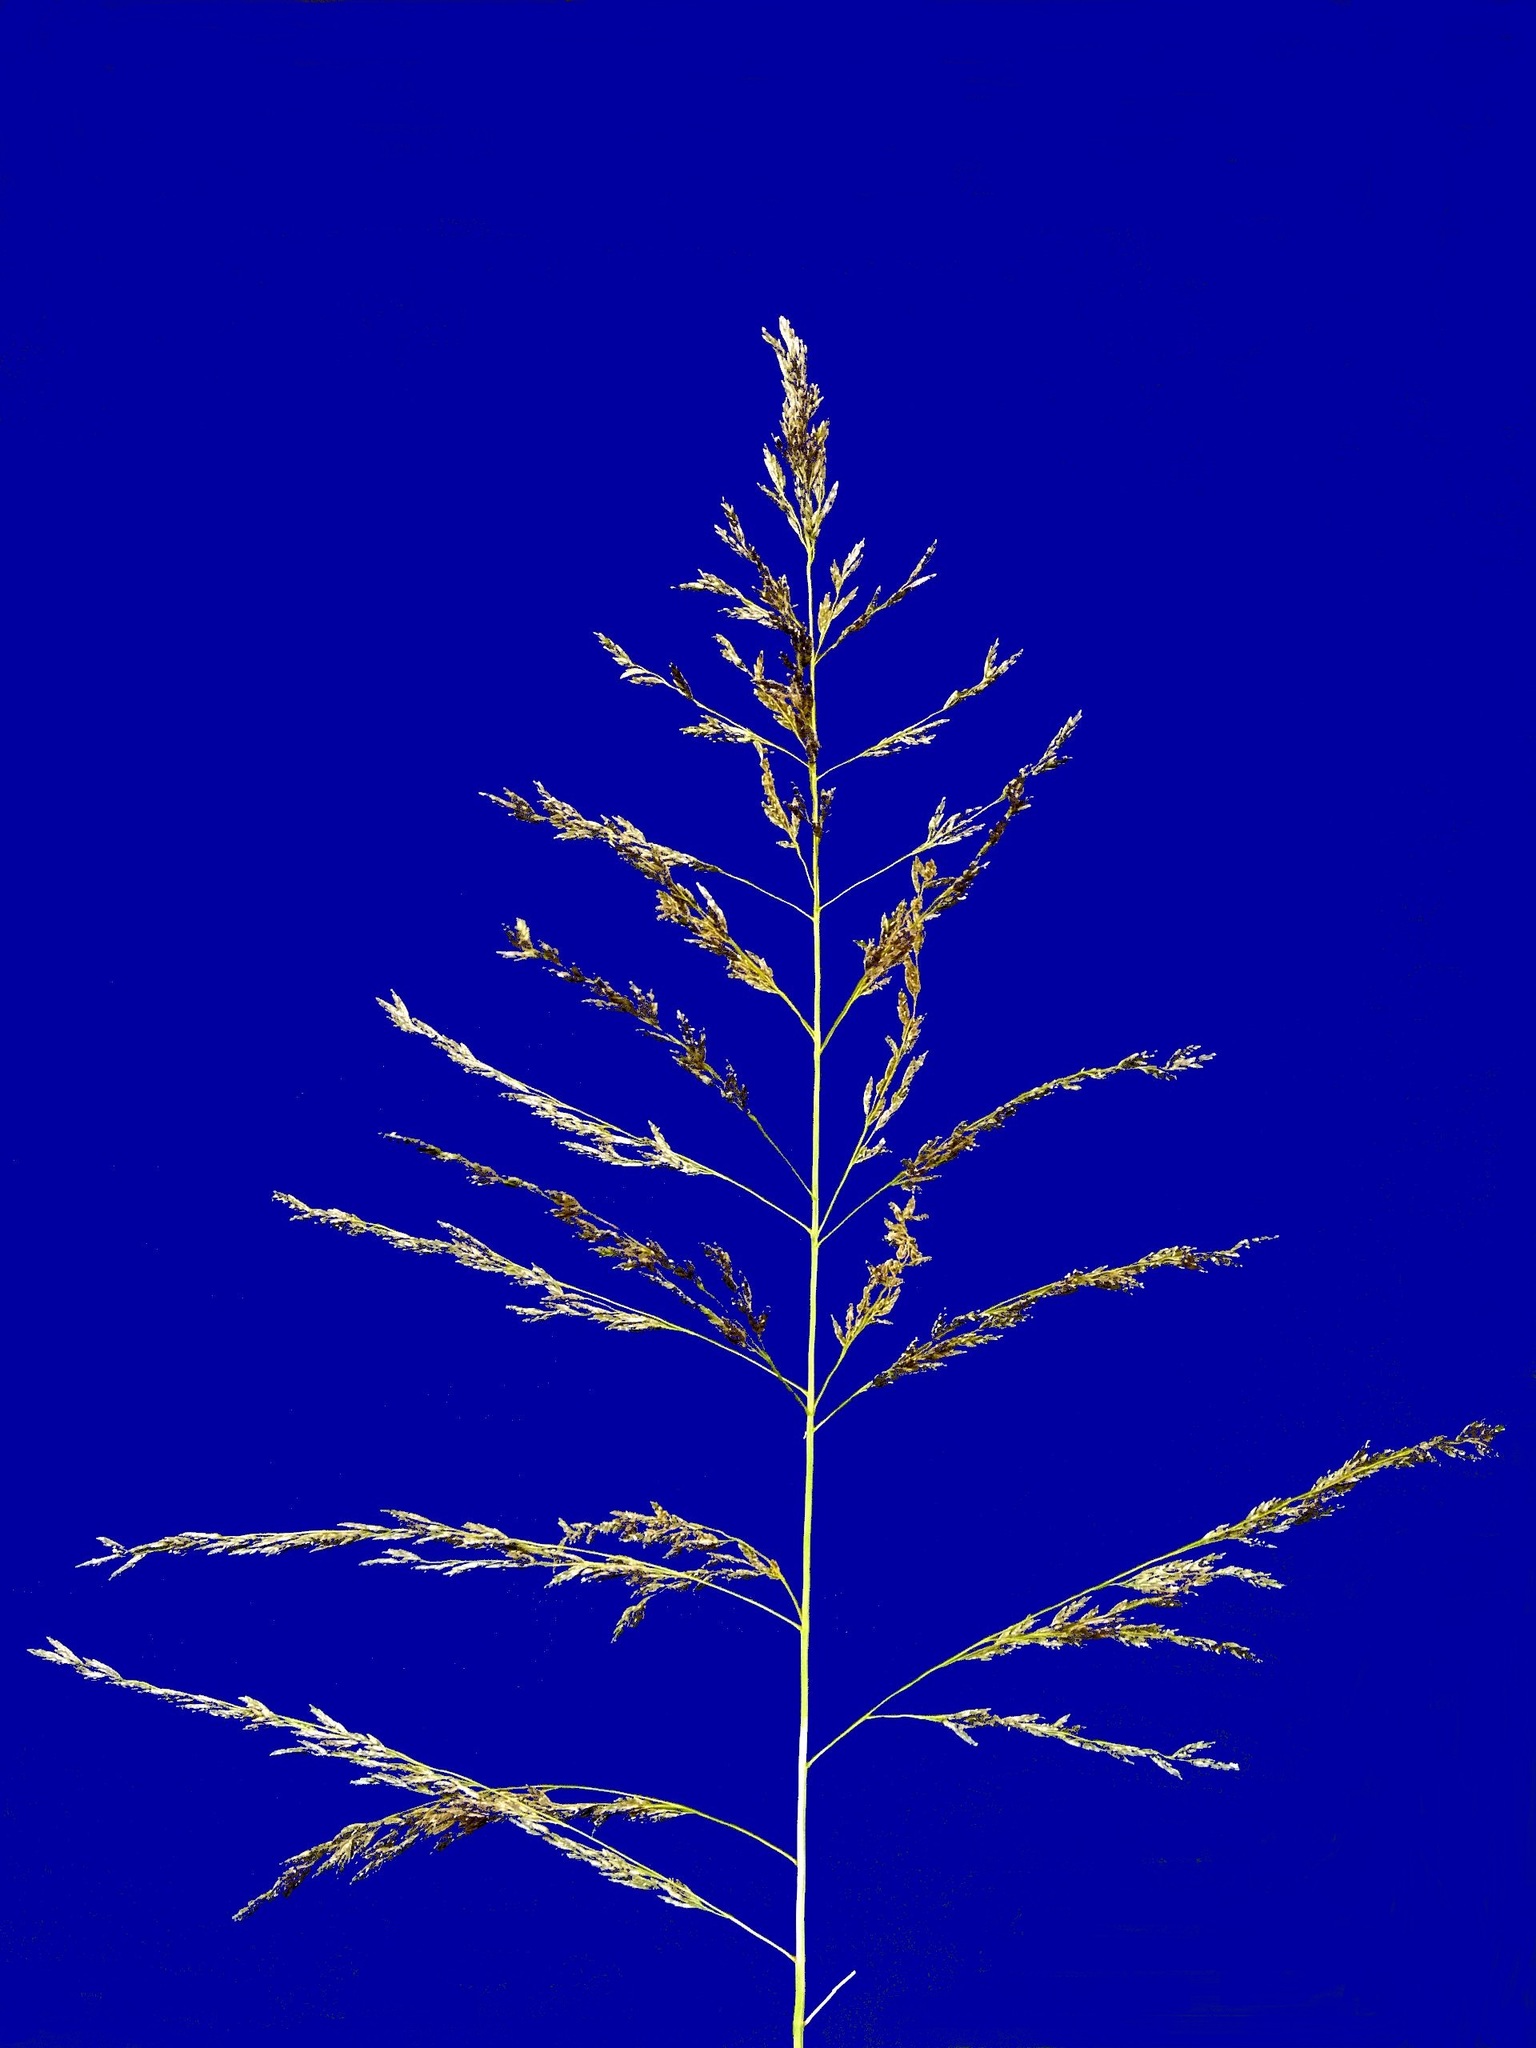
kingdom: Plantae
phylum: Tracheophyta
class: Liliopsida
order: Poales
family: Poaceae
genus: Eragrostis
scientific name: Eragrostis curvula
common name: African love-grass
